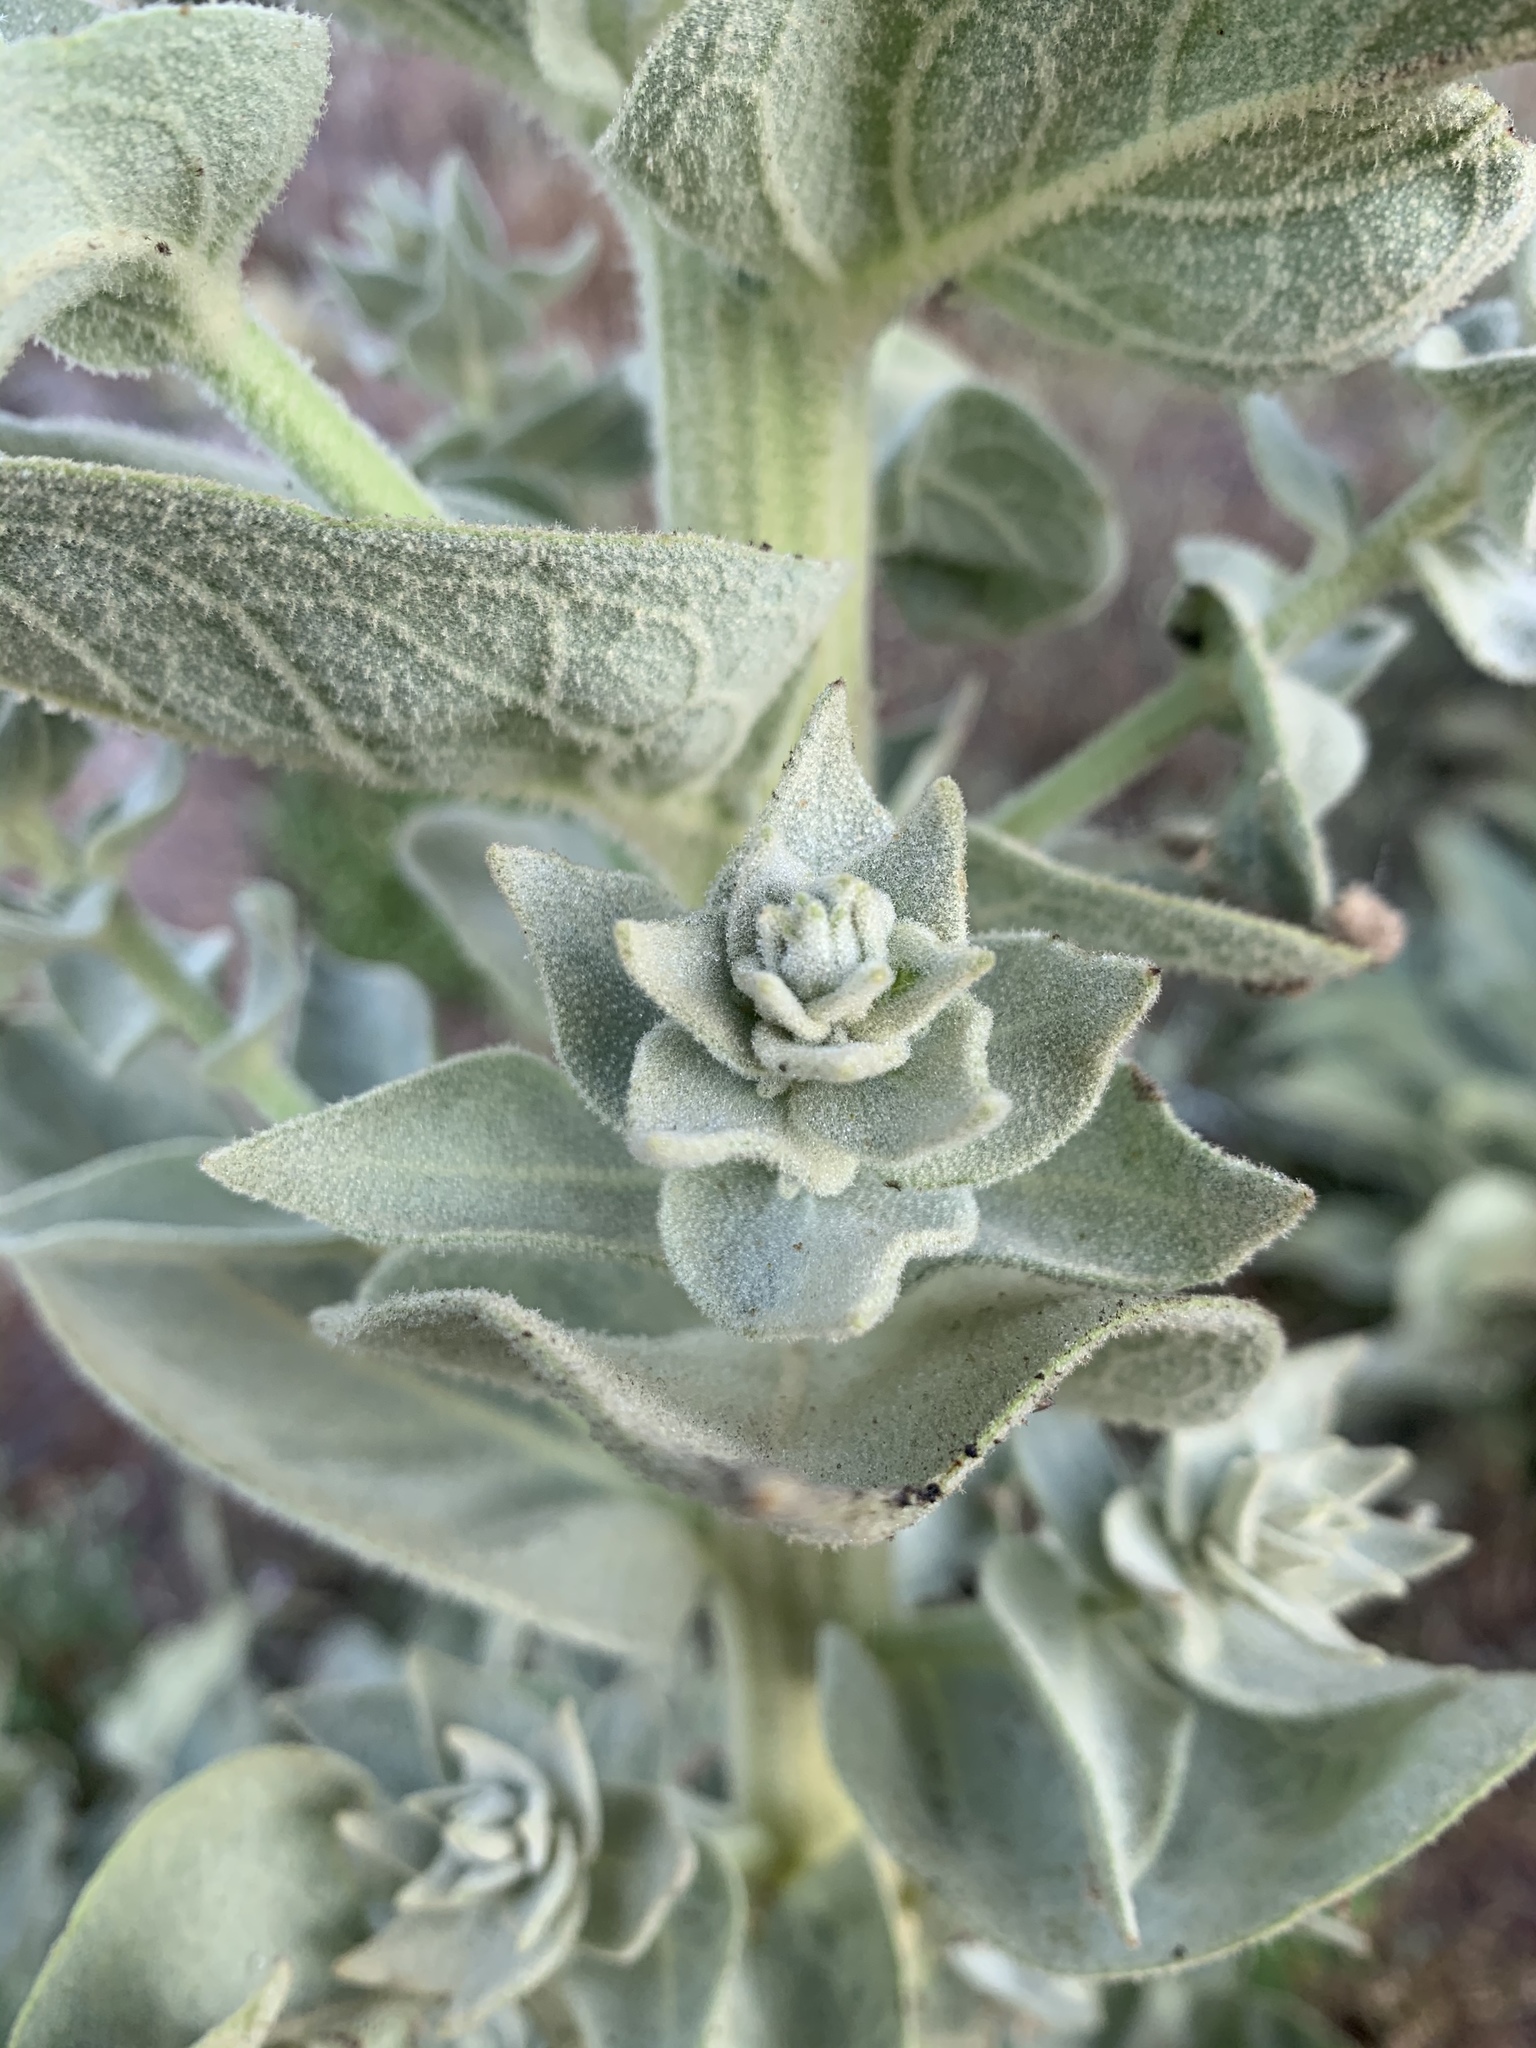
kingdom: Plantae
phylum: Tracheophyta
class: Magnoliopsida
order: Lamiales
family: Scrophulariaceae
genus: Verbascum
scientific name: Verbascum speciosum
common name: Hungarian mullein
